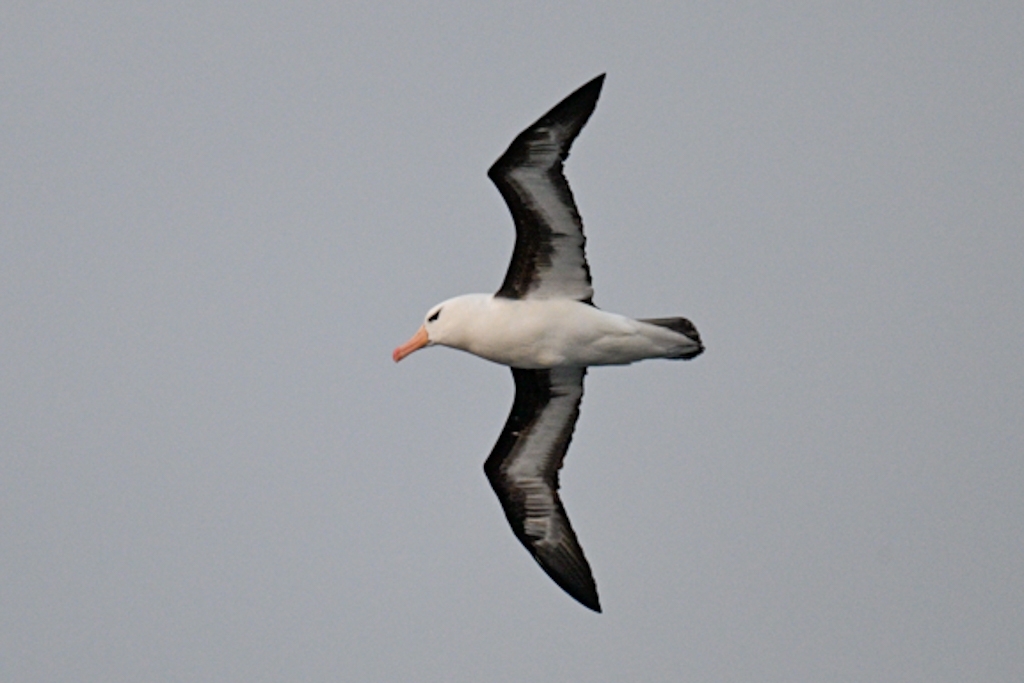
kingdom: Animalia
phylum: Chordata
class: Aves
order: Procellariiformes
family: Diomedeidae
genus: Thalassarche
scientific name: Thalassarche melanophris
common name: Black-browed albatross
